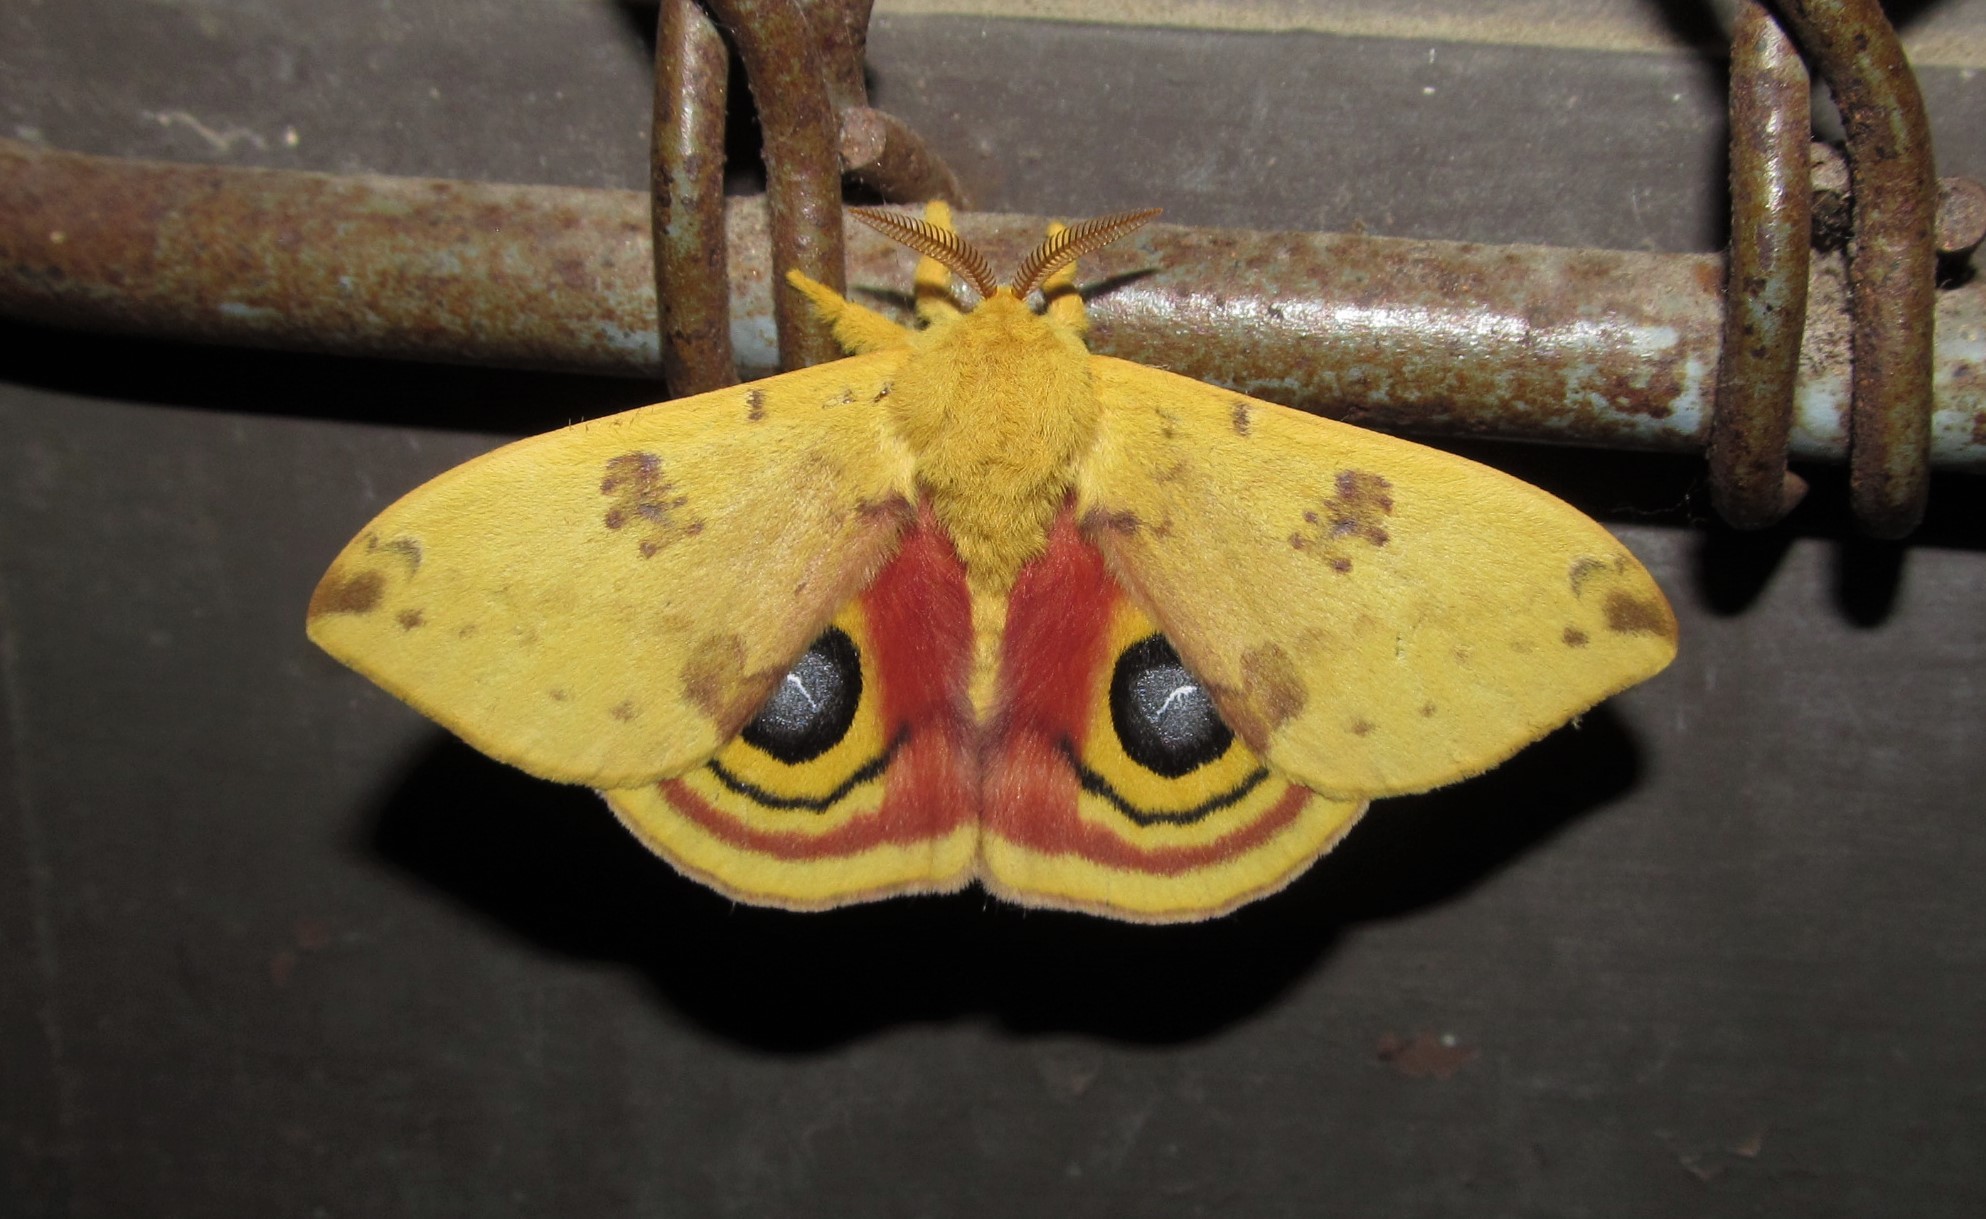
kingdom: Animalia
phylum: Arthropoda
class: Insecta
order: Lepidoptera
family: Saturniidae
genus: Automeris
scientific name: Automeris io
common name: Io moth
